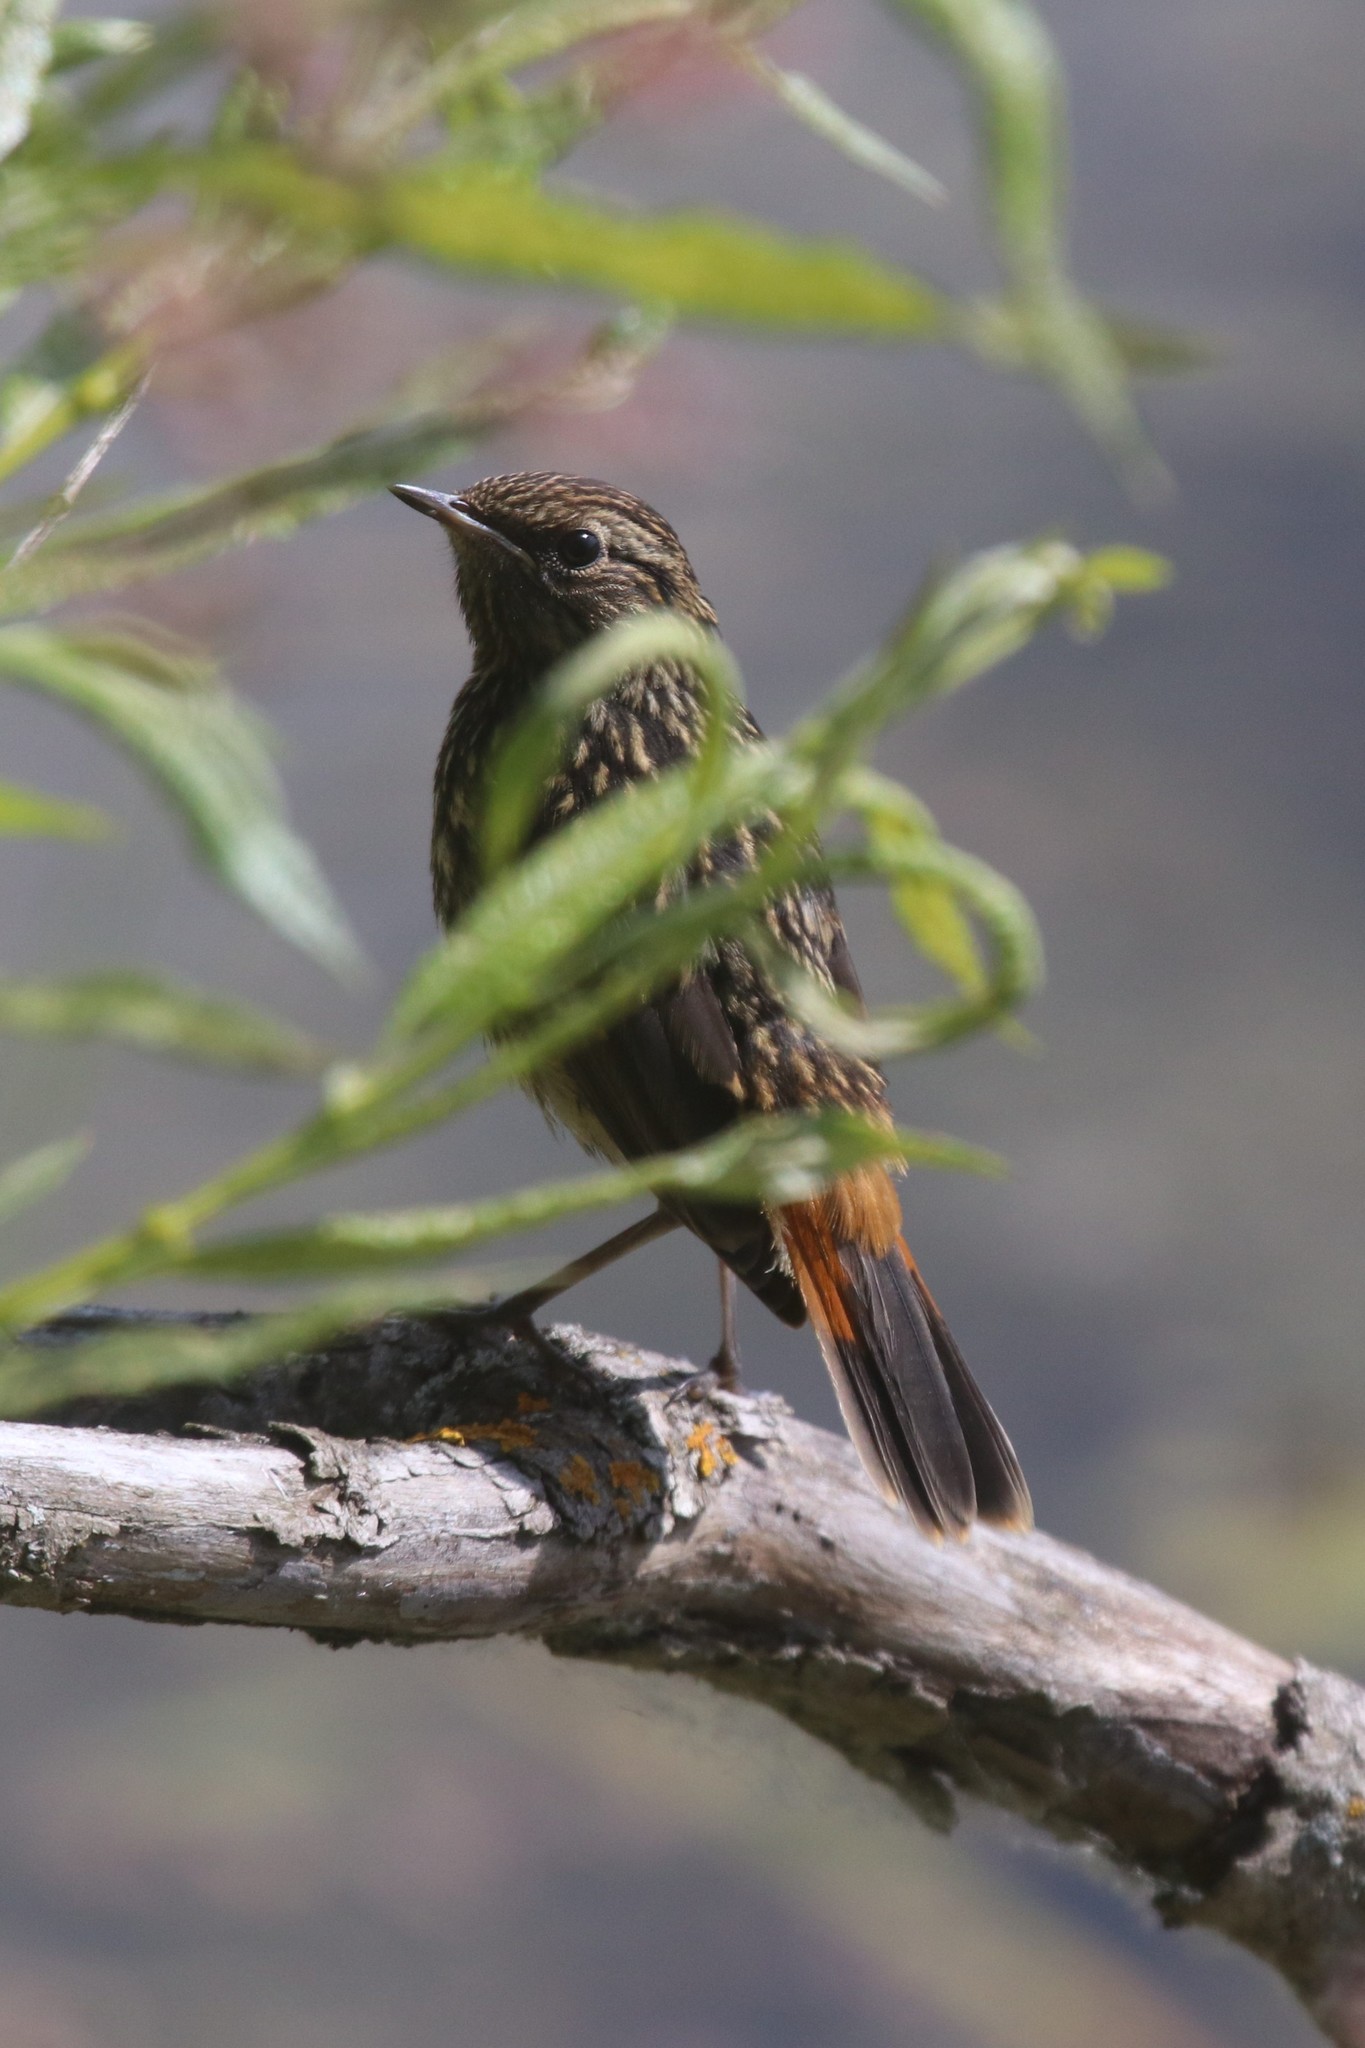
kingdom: Animalia
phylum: Chordata
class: Aves
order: Passeriformes
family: Muscicapidae
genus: Luscinia
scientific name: Luscinia svecica
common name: Bluethroat
